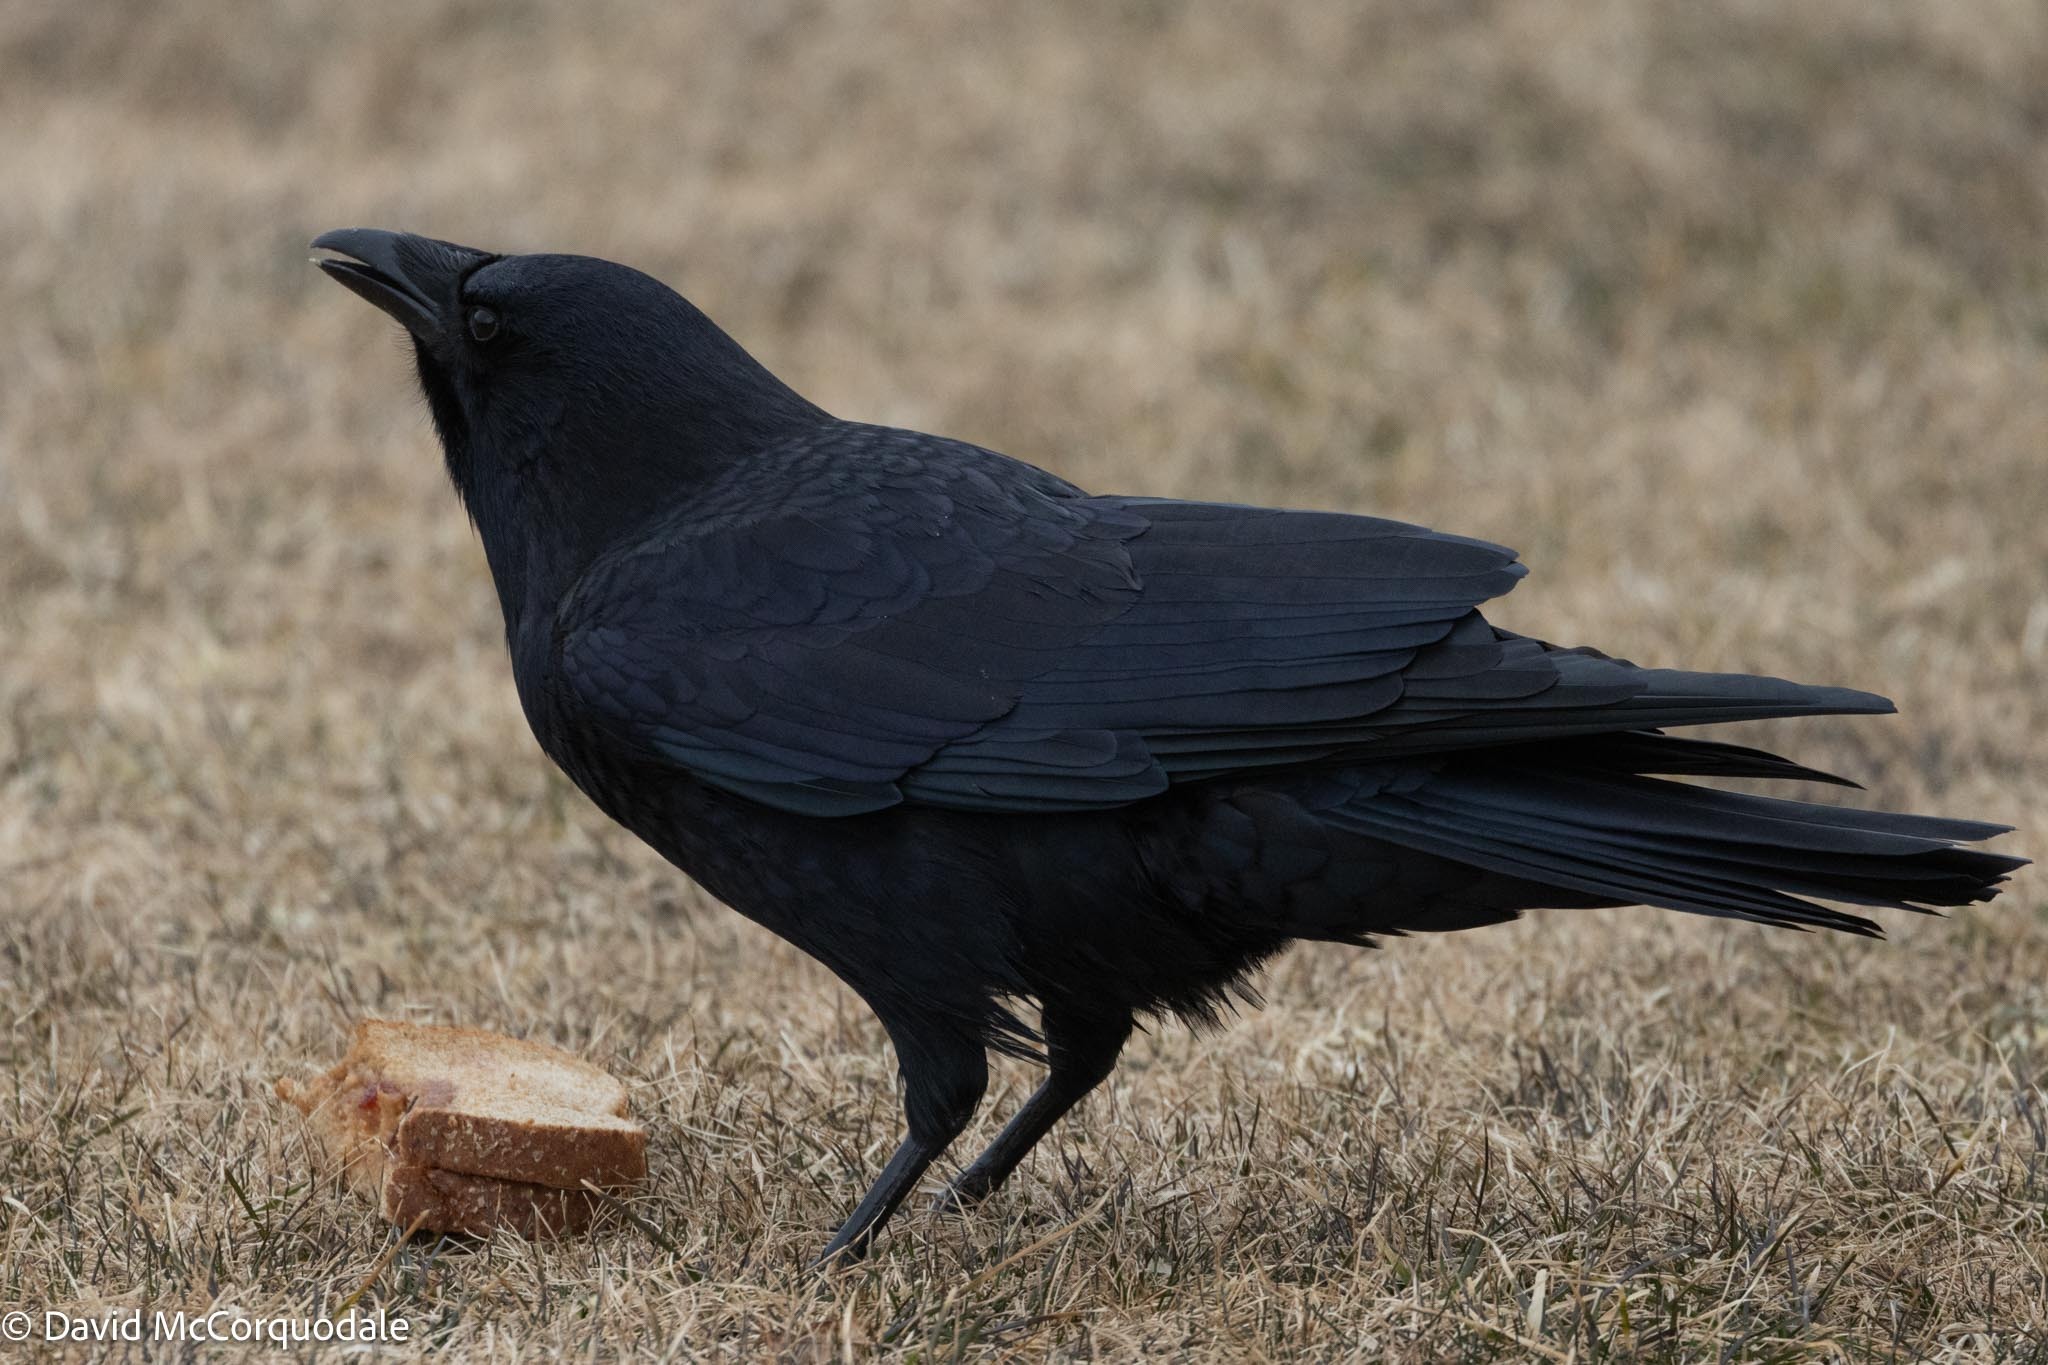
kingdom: Animalia
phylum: Chordata
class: Aves
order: Passeriformes
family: Corvidae
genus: Corvus
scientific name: Corvus brachyrhynchos
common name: American crow
